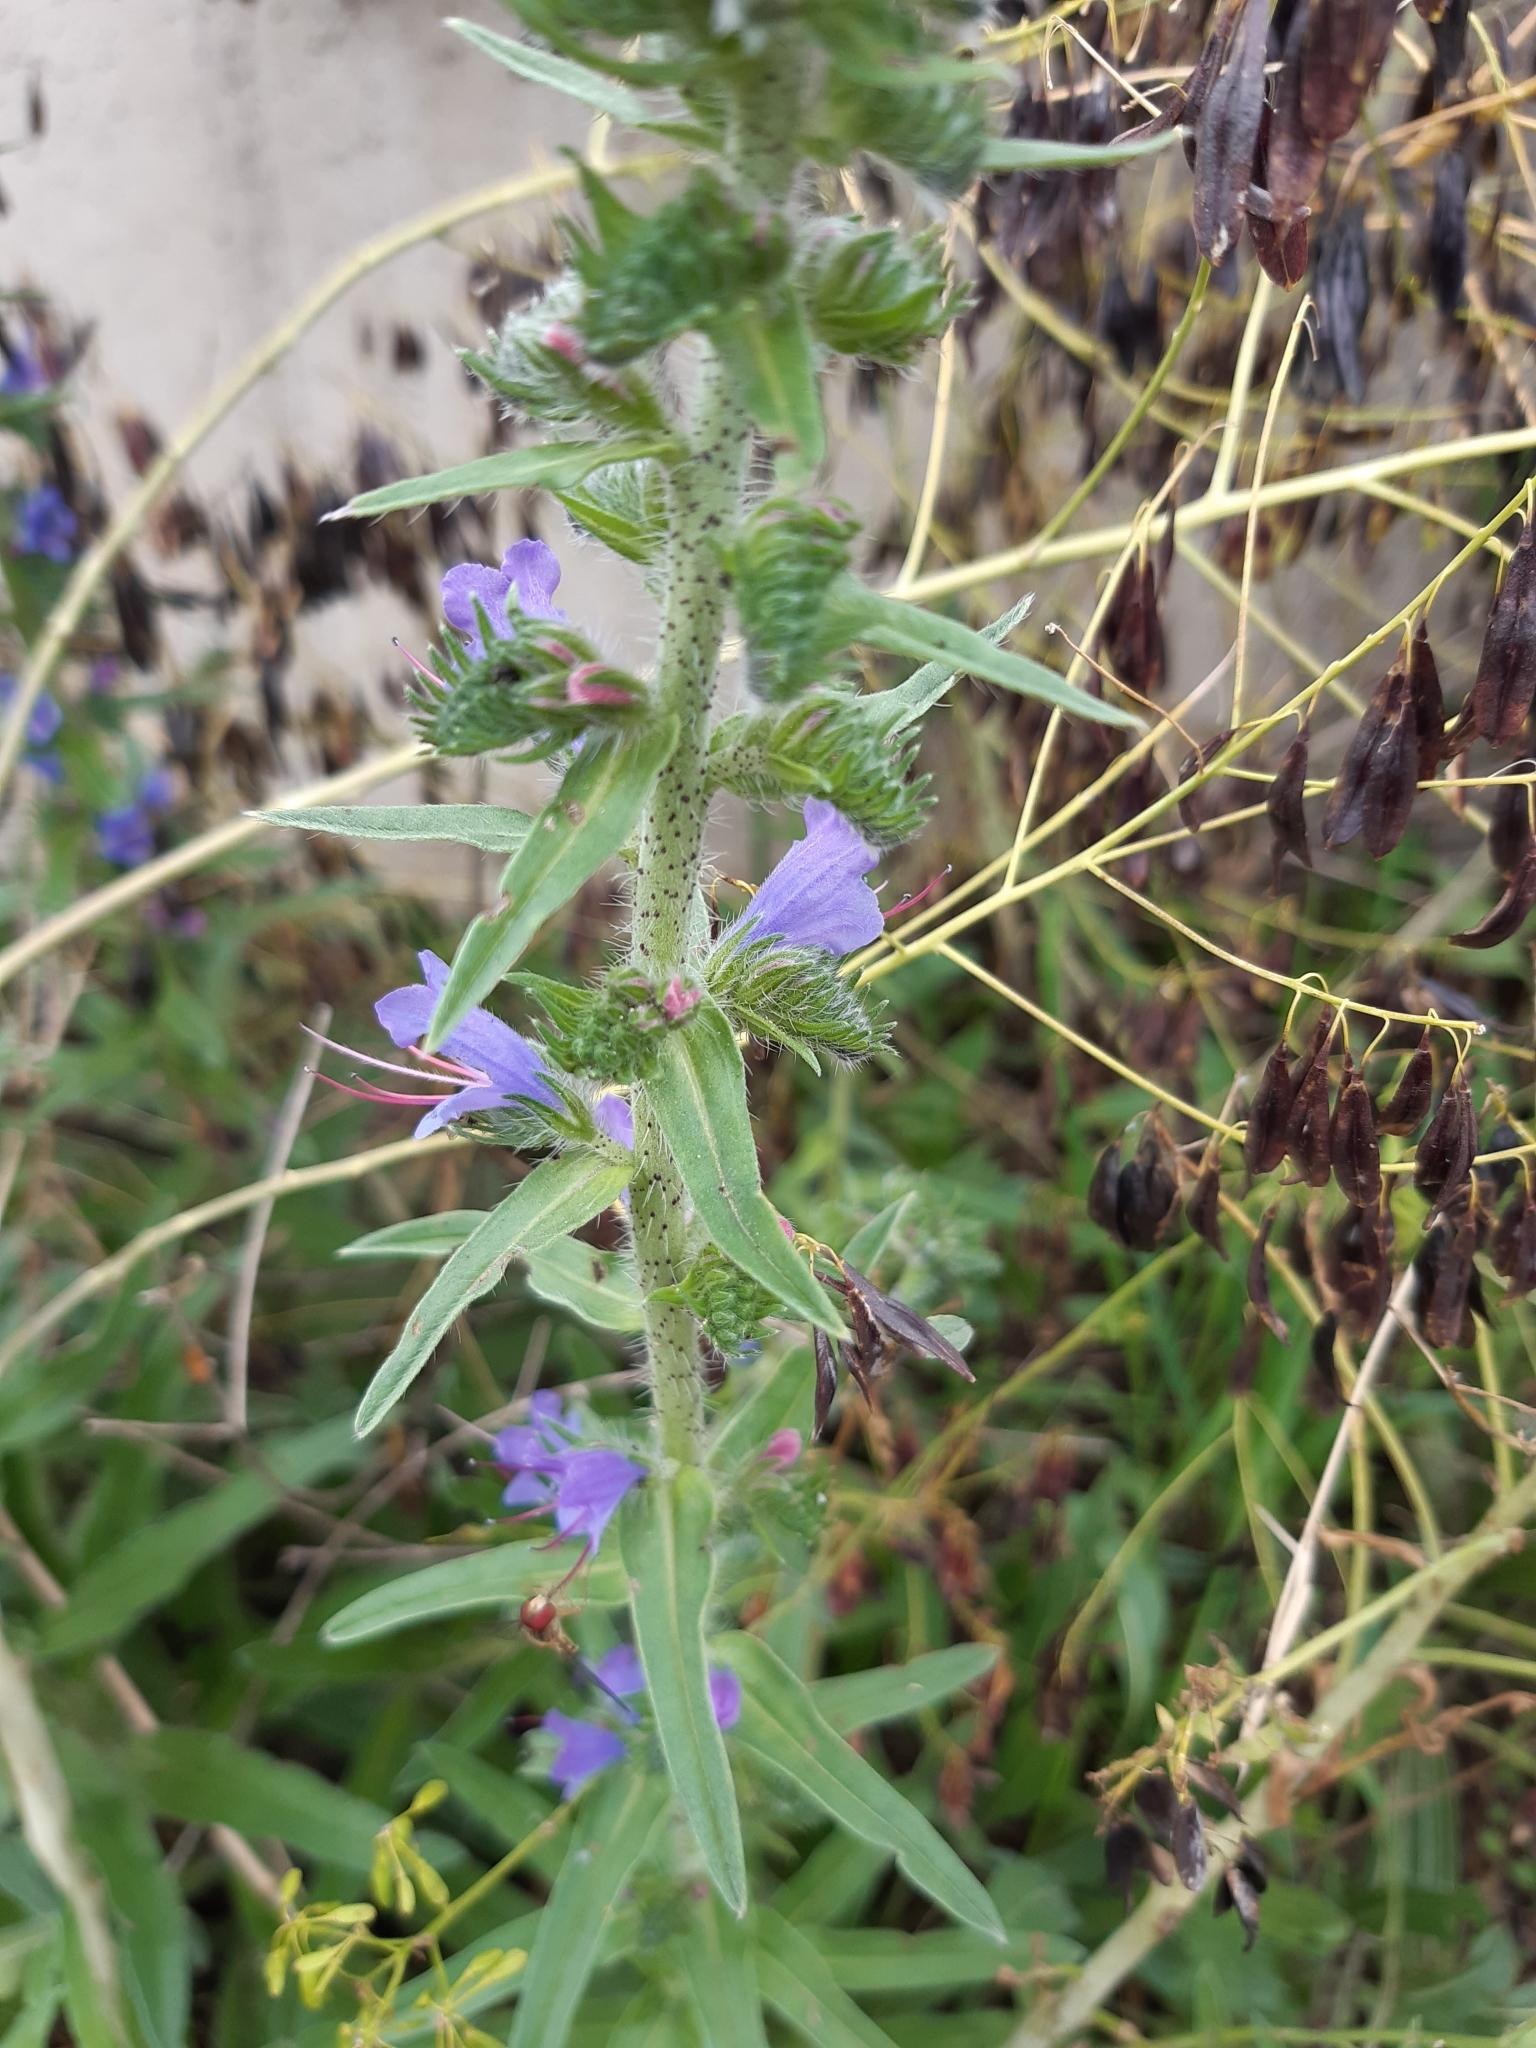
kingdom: Plantae
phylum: Tracheophyta
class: Magnoliopsida
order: Boraginales
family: Boraginaceae
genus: Echium
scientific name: Echium vulgare
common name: Common viper's bugloss
